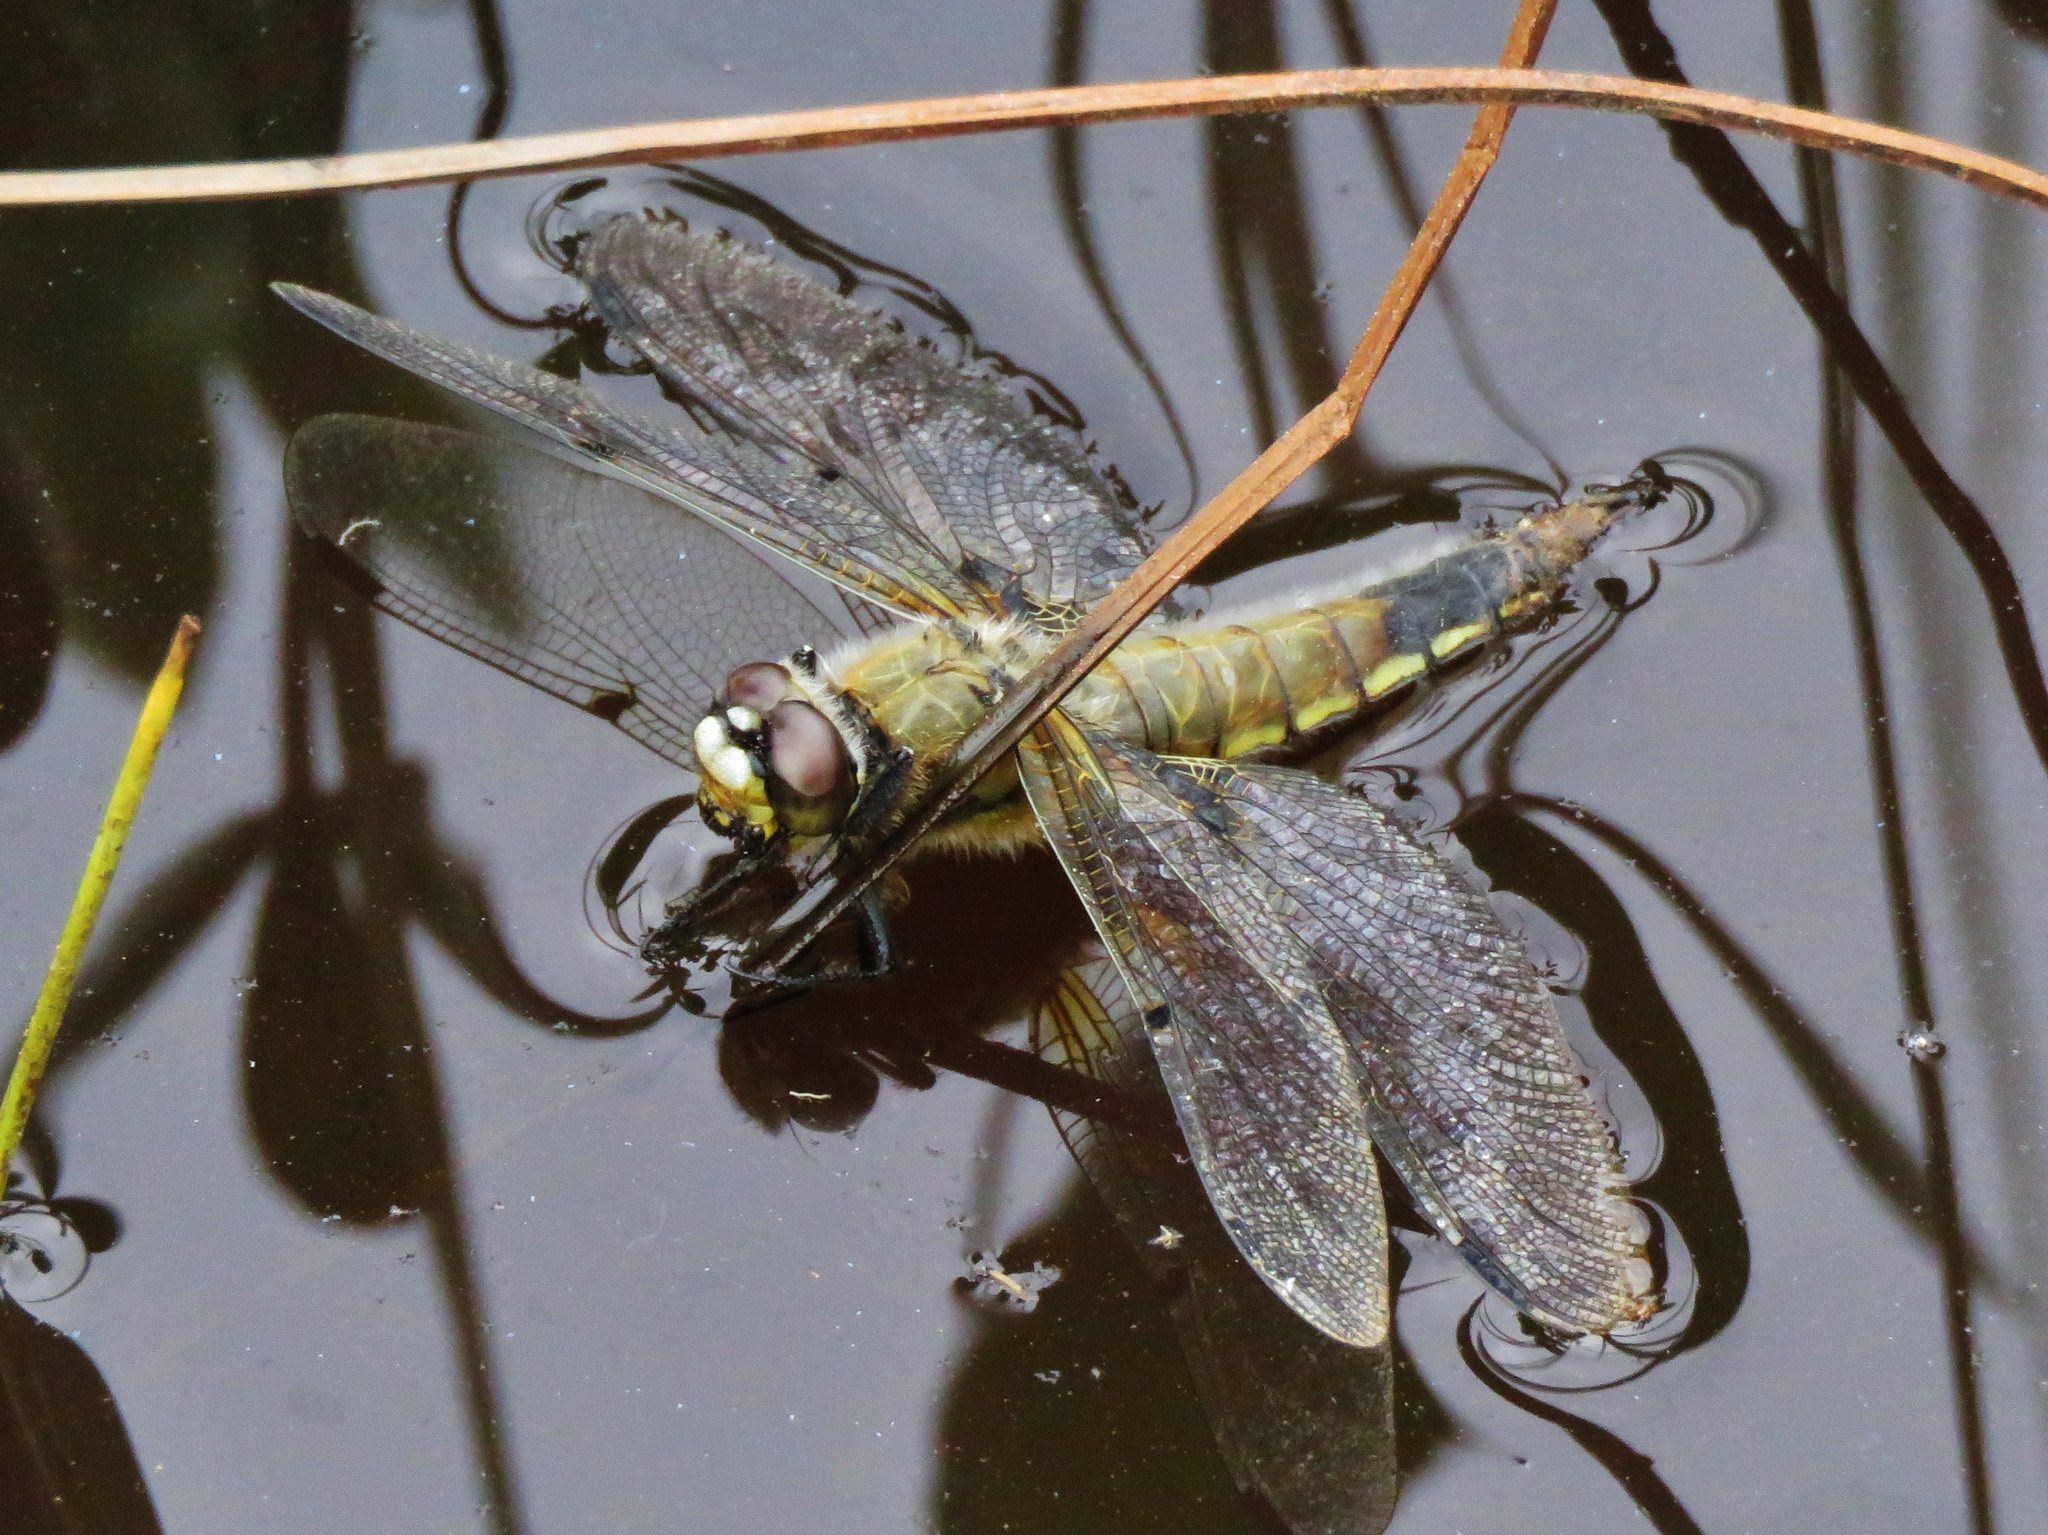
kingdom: Animalia
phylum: Arthropoda
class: Insecta
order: Odonata
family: Libellulidae
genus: Libellula
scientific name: Libellula quadrimaculata
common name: Four-spotted chaser
